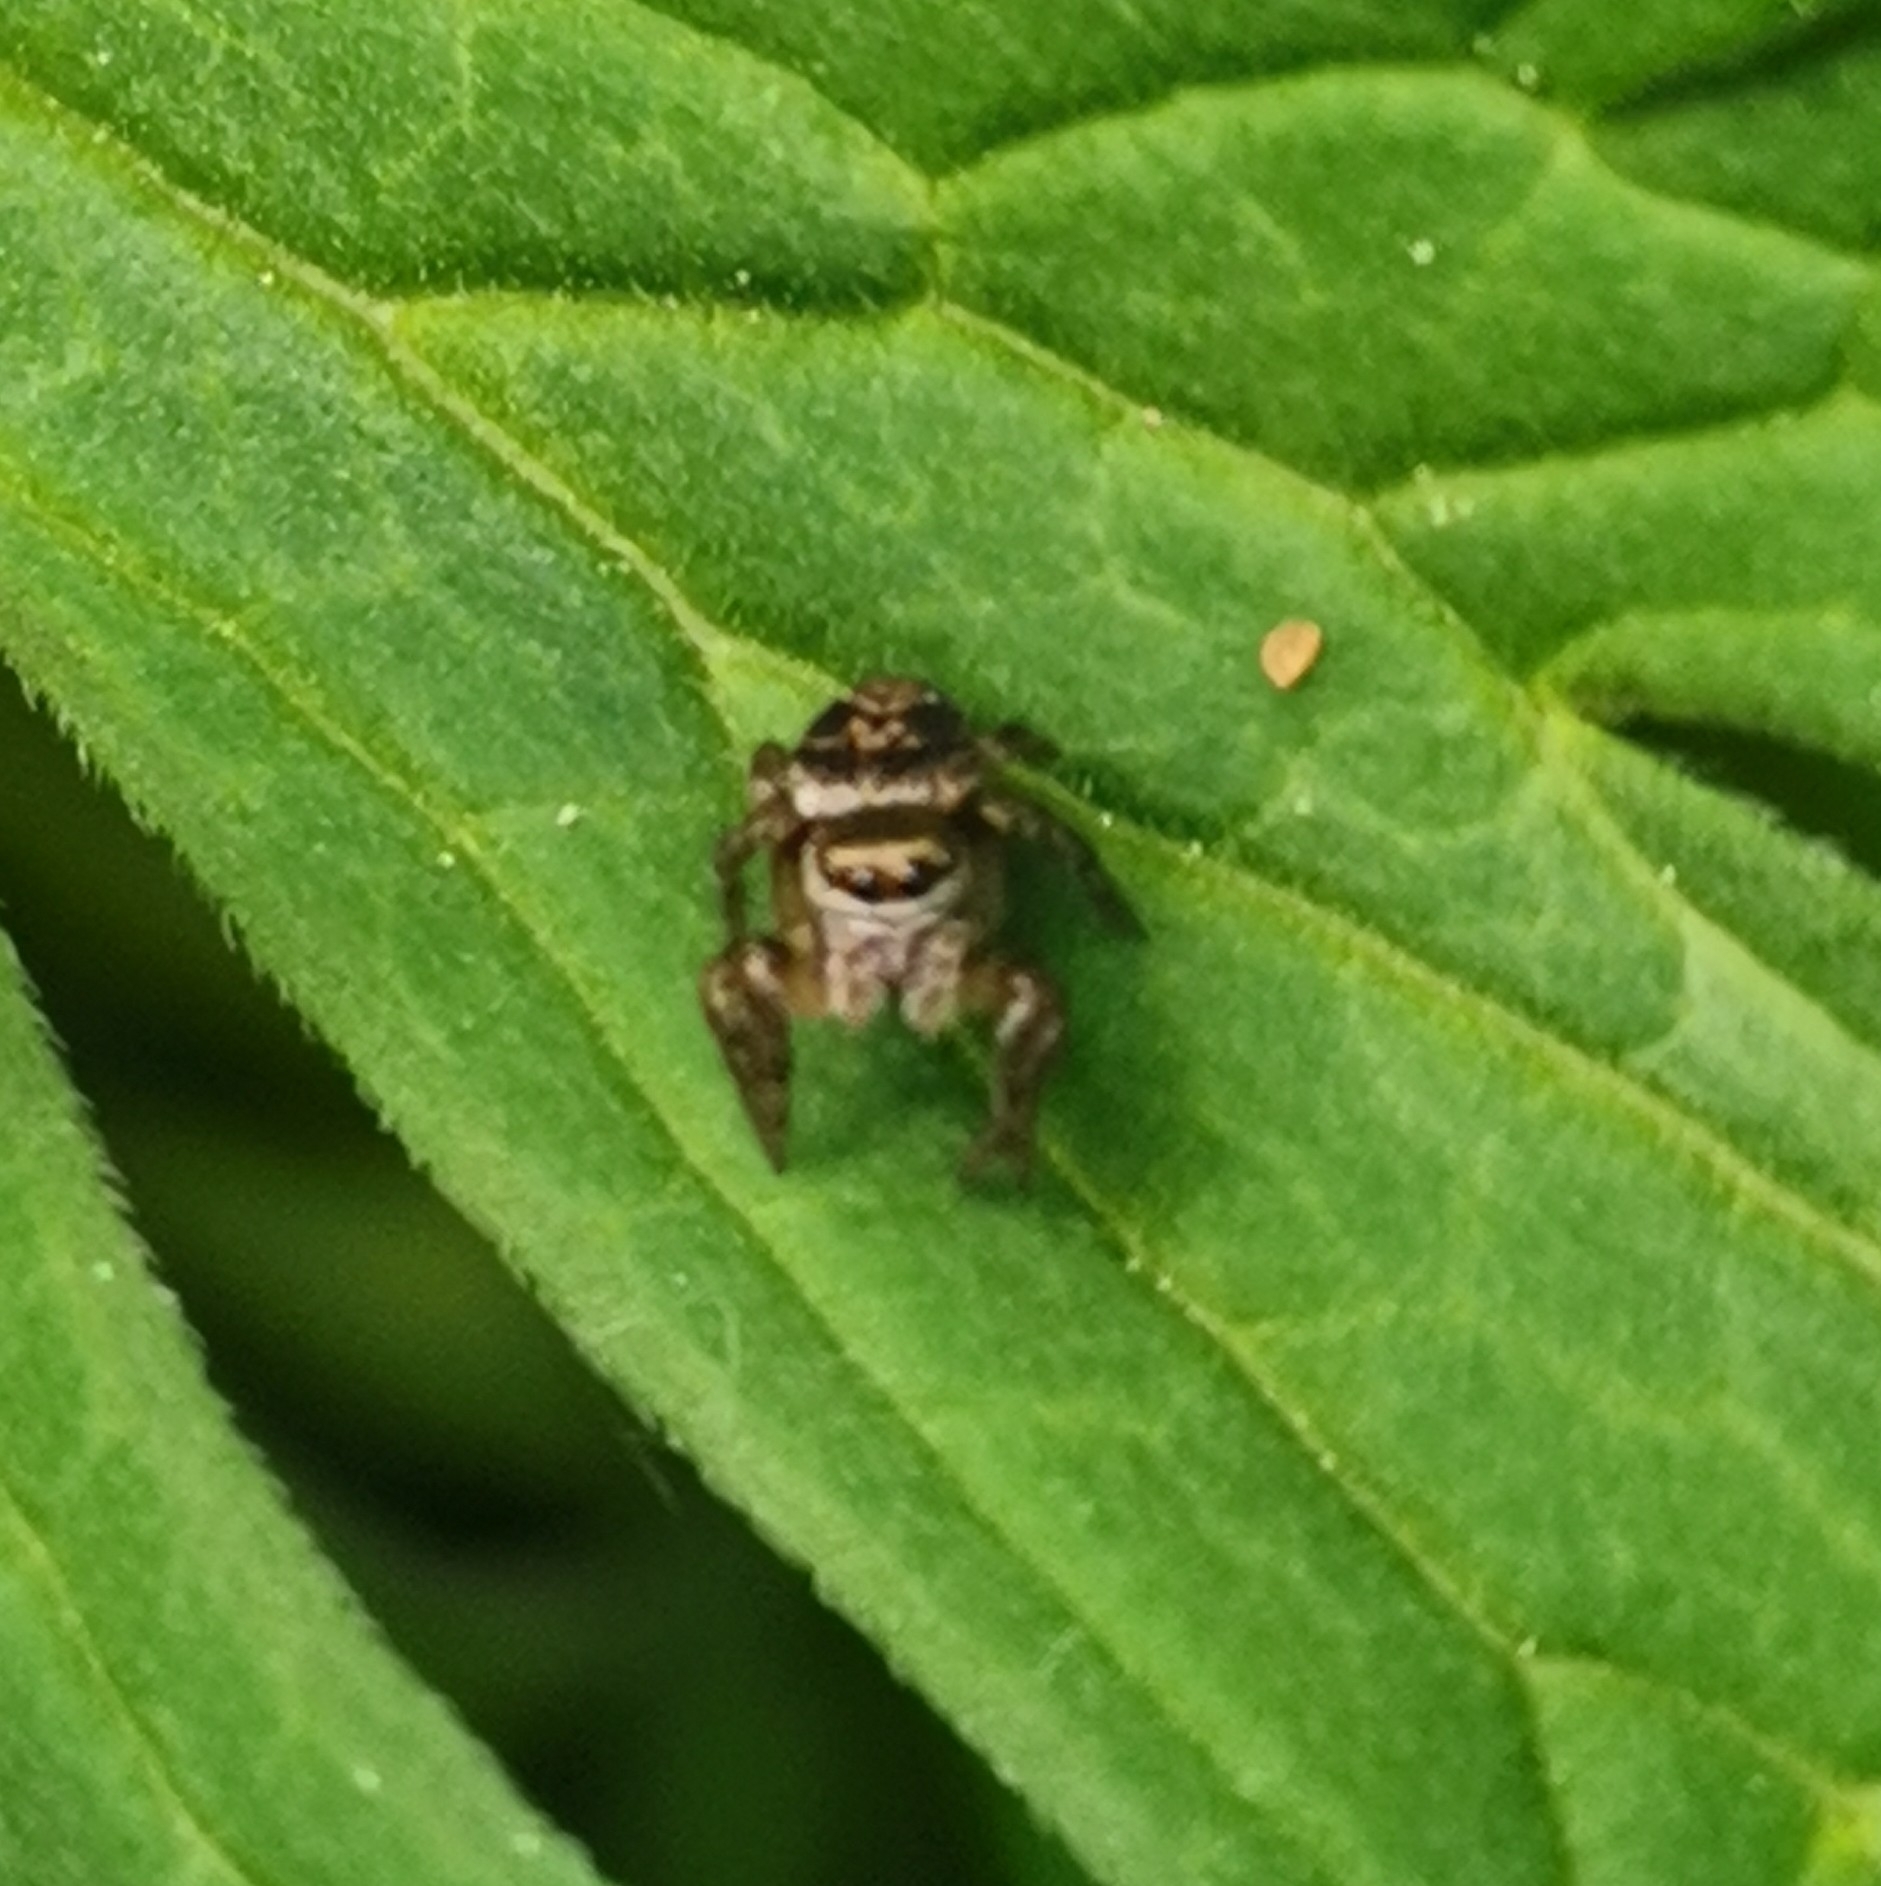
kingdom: Animalia
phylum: Arthropoda
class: Arachnida
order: Araneae
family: Salticidae
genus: Evarcha
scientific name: Evarcha arcuata
